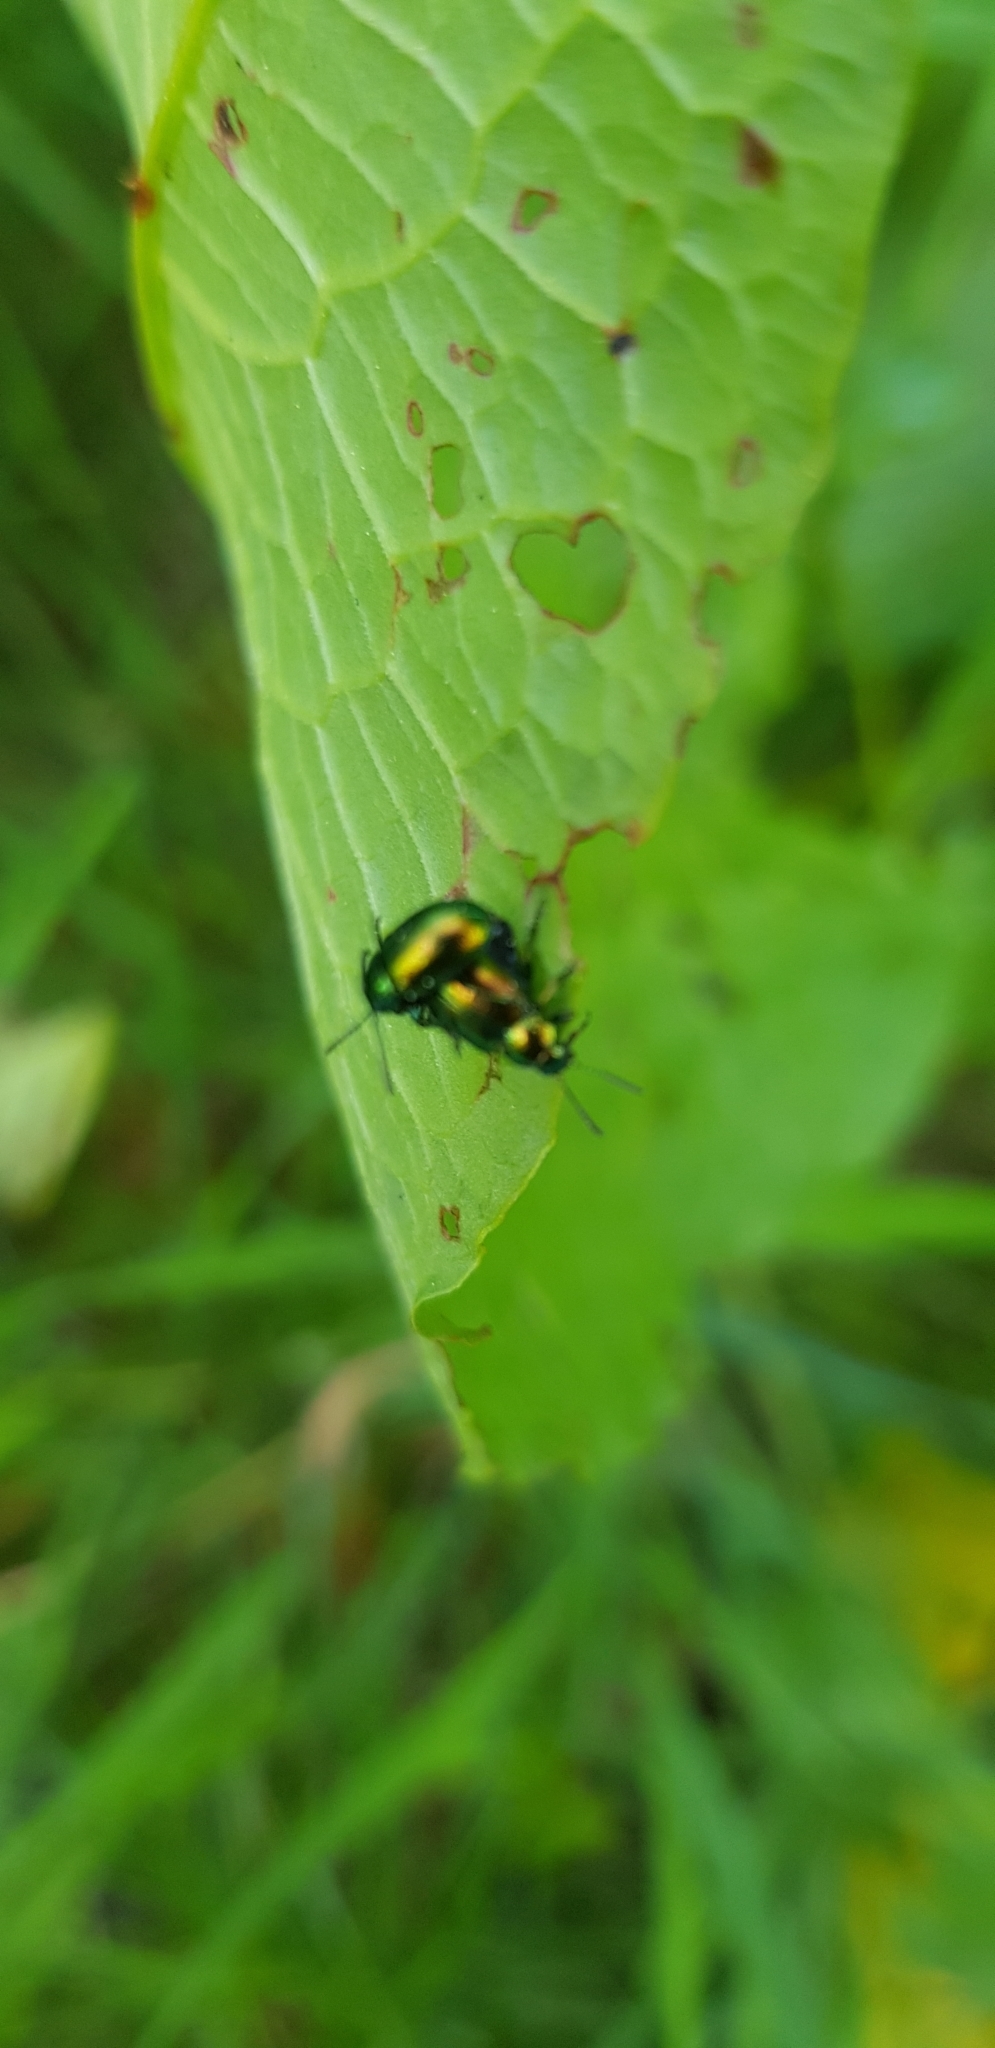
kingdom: Animalia
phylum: Arthropoda
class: Insecta
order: Coleoptera
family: Chrysomelidae
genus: Gastrophysa
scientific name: Gastrophysa viridula
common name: Green dock beetle
